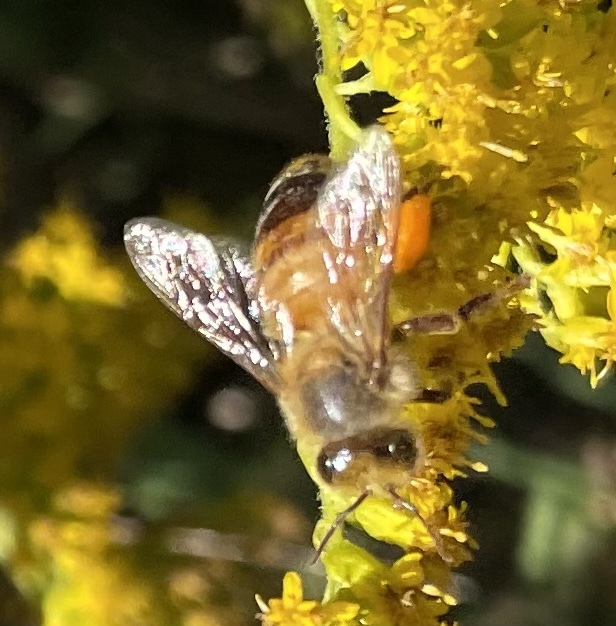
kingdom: Animalia
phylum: Arthropoda
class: Insecta
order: Hymenoptera
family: Apidae
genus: Apis
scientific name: Apis mellifera
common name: Honey bee
